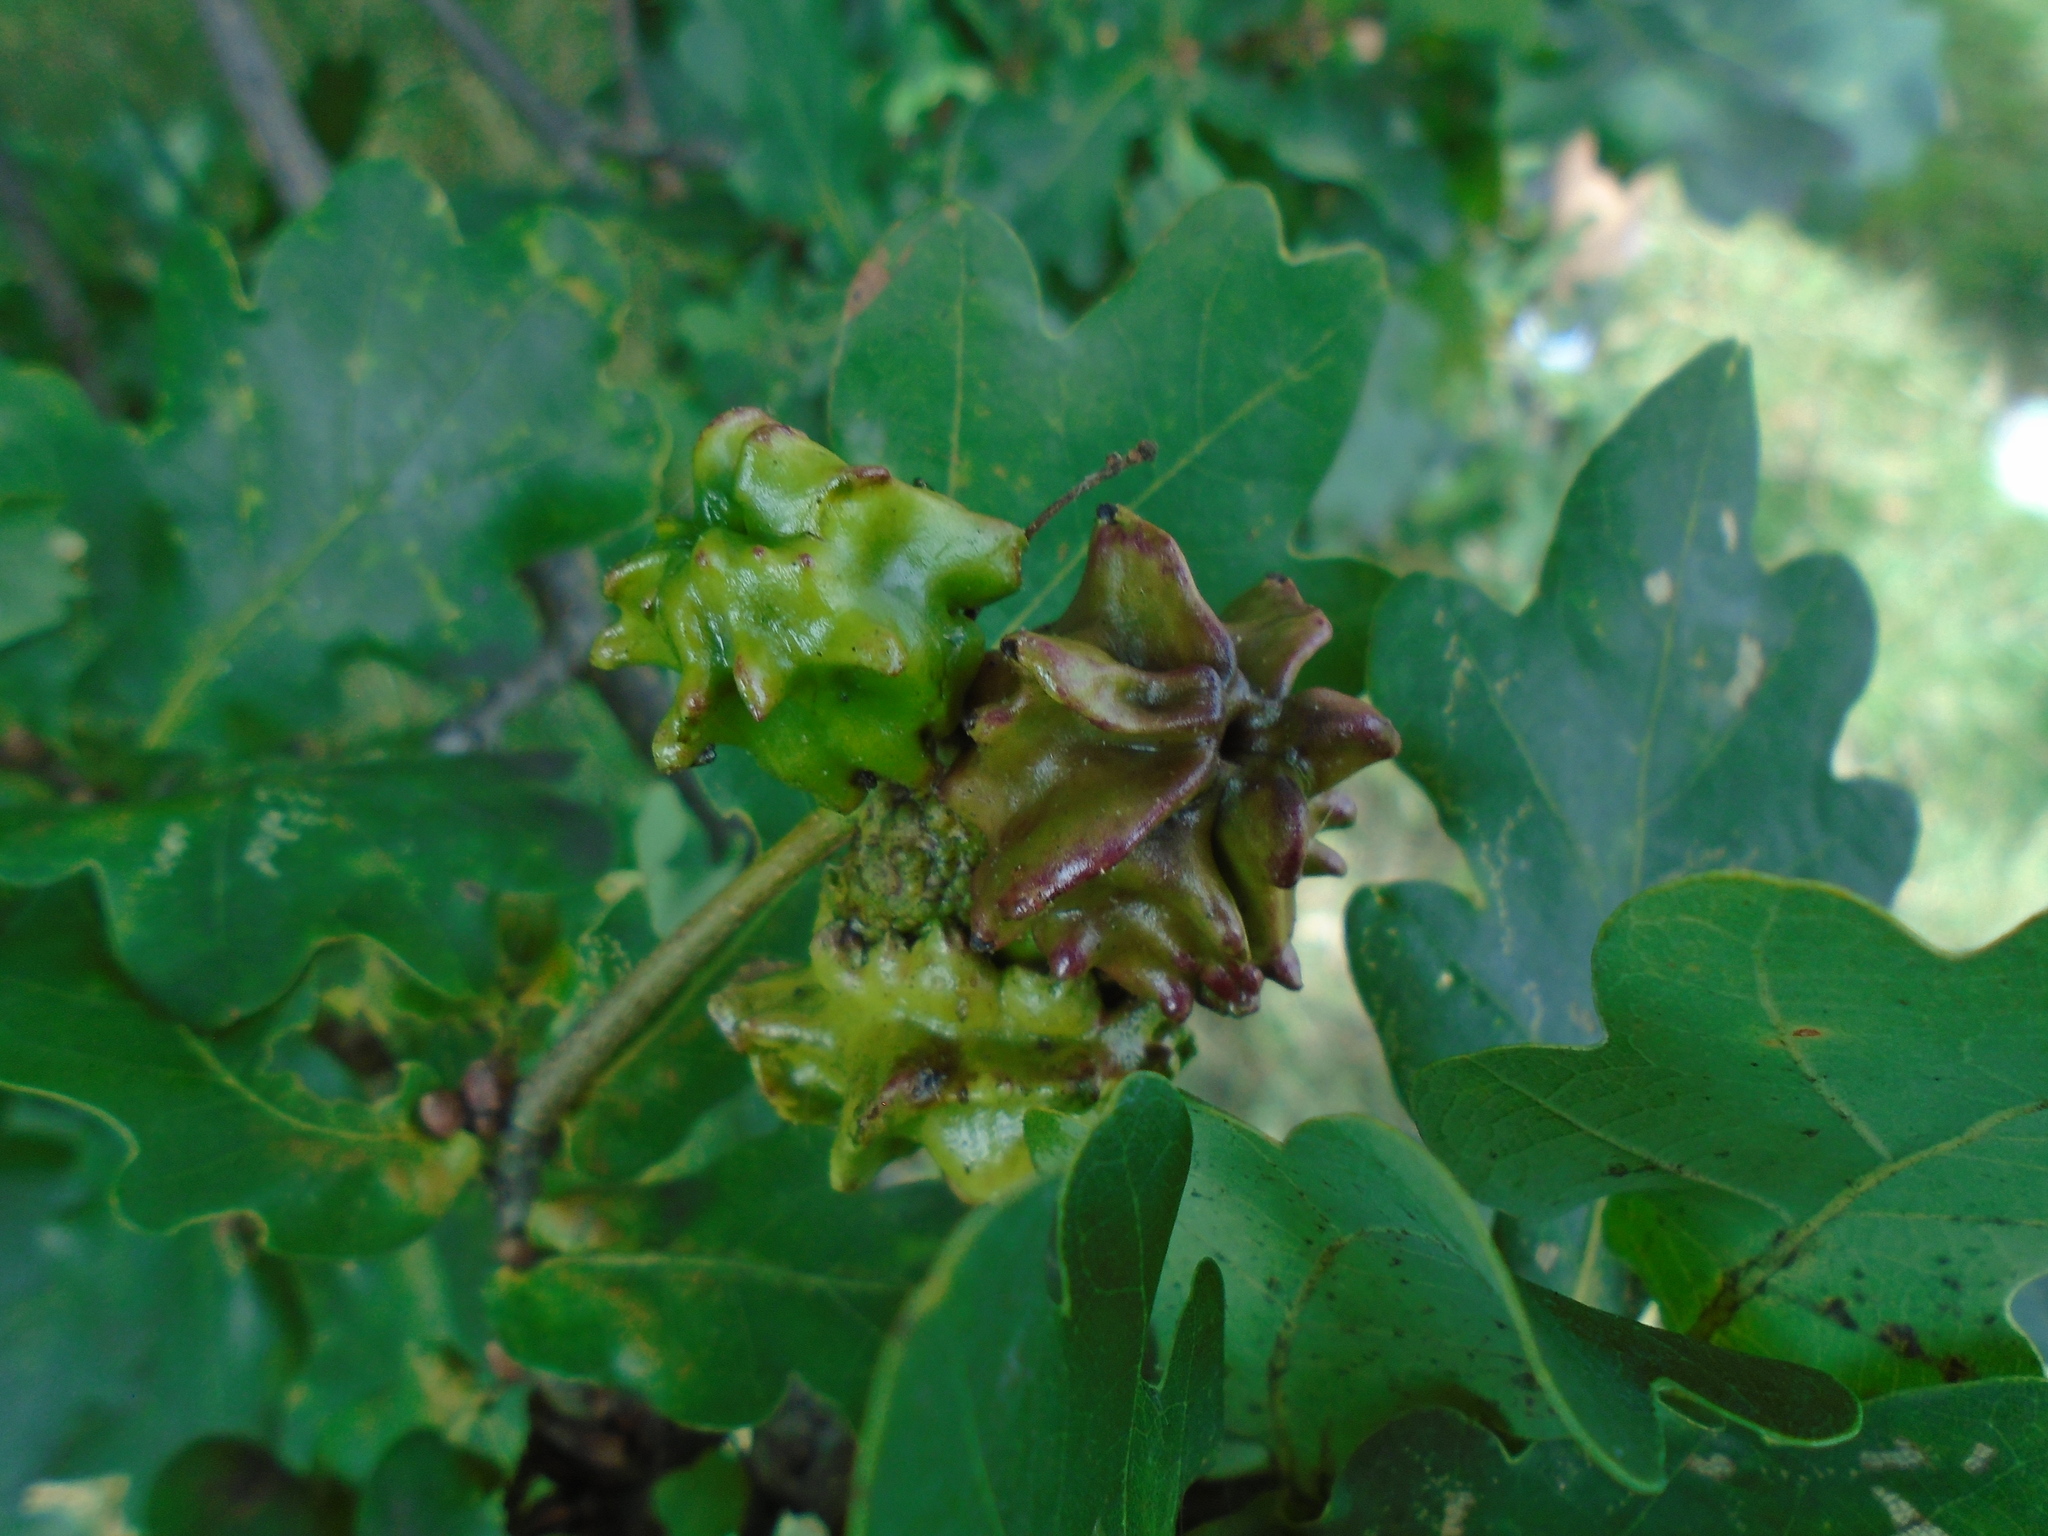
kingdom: Animalia
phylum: Arthropoda
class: Insecta
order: Hymenoptera
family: Cynipidae
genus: Andricus
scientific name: Andricus quercuscalicis
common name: Knopper gall
